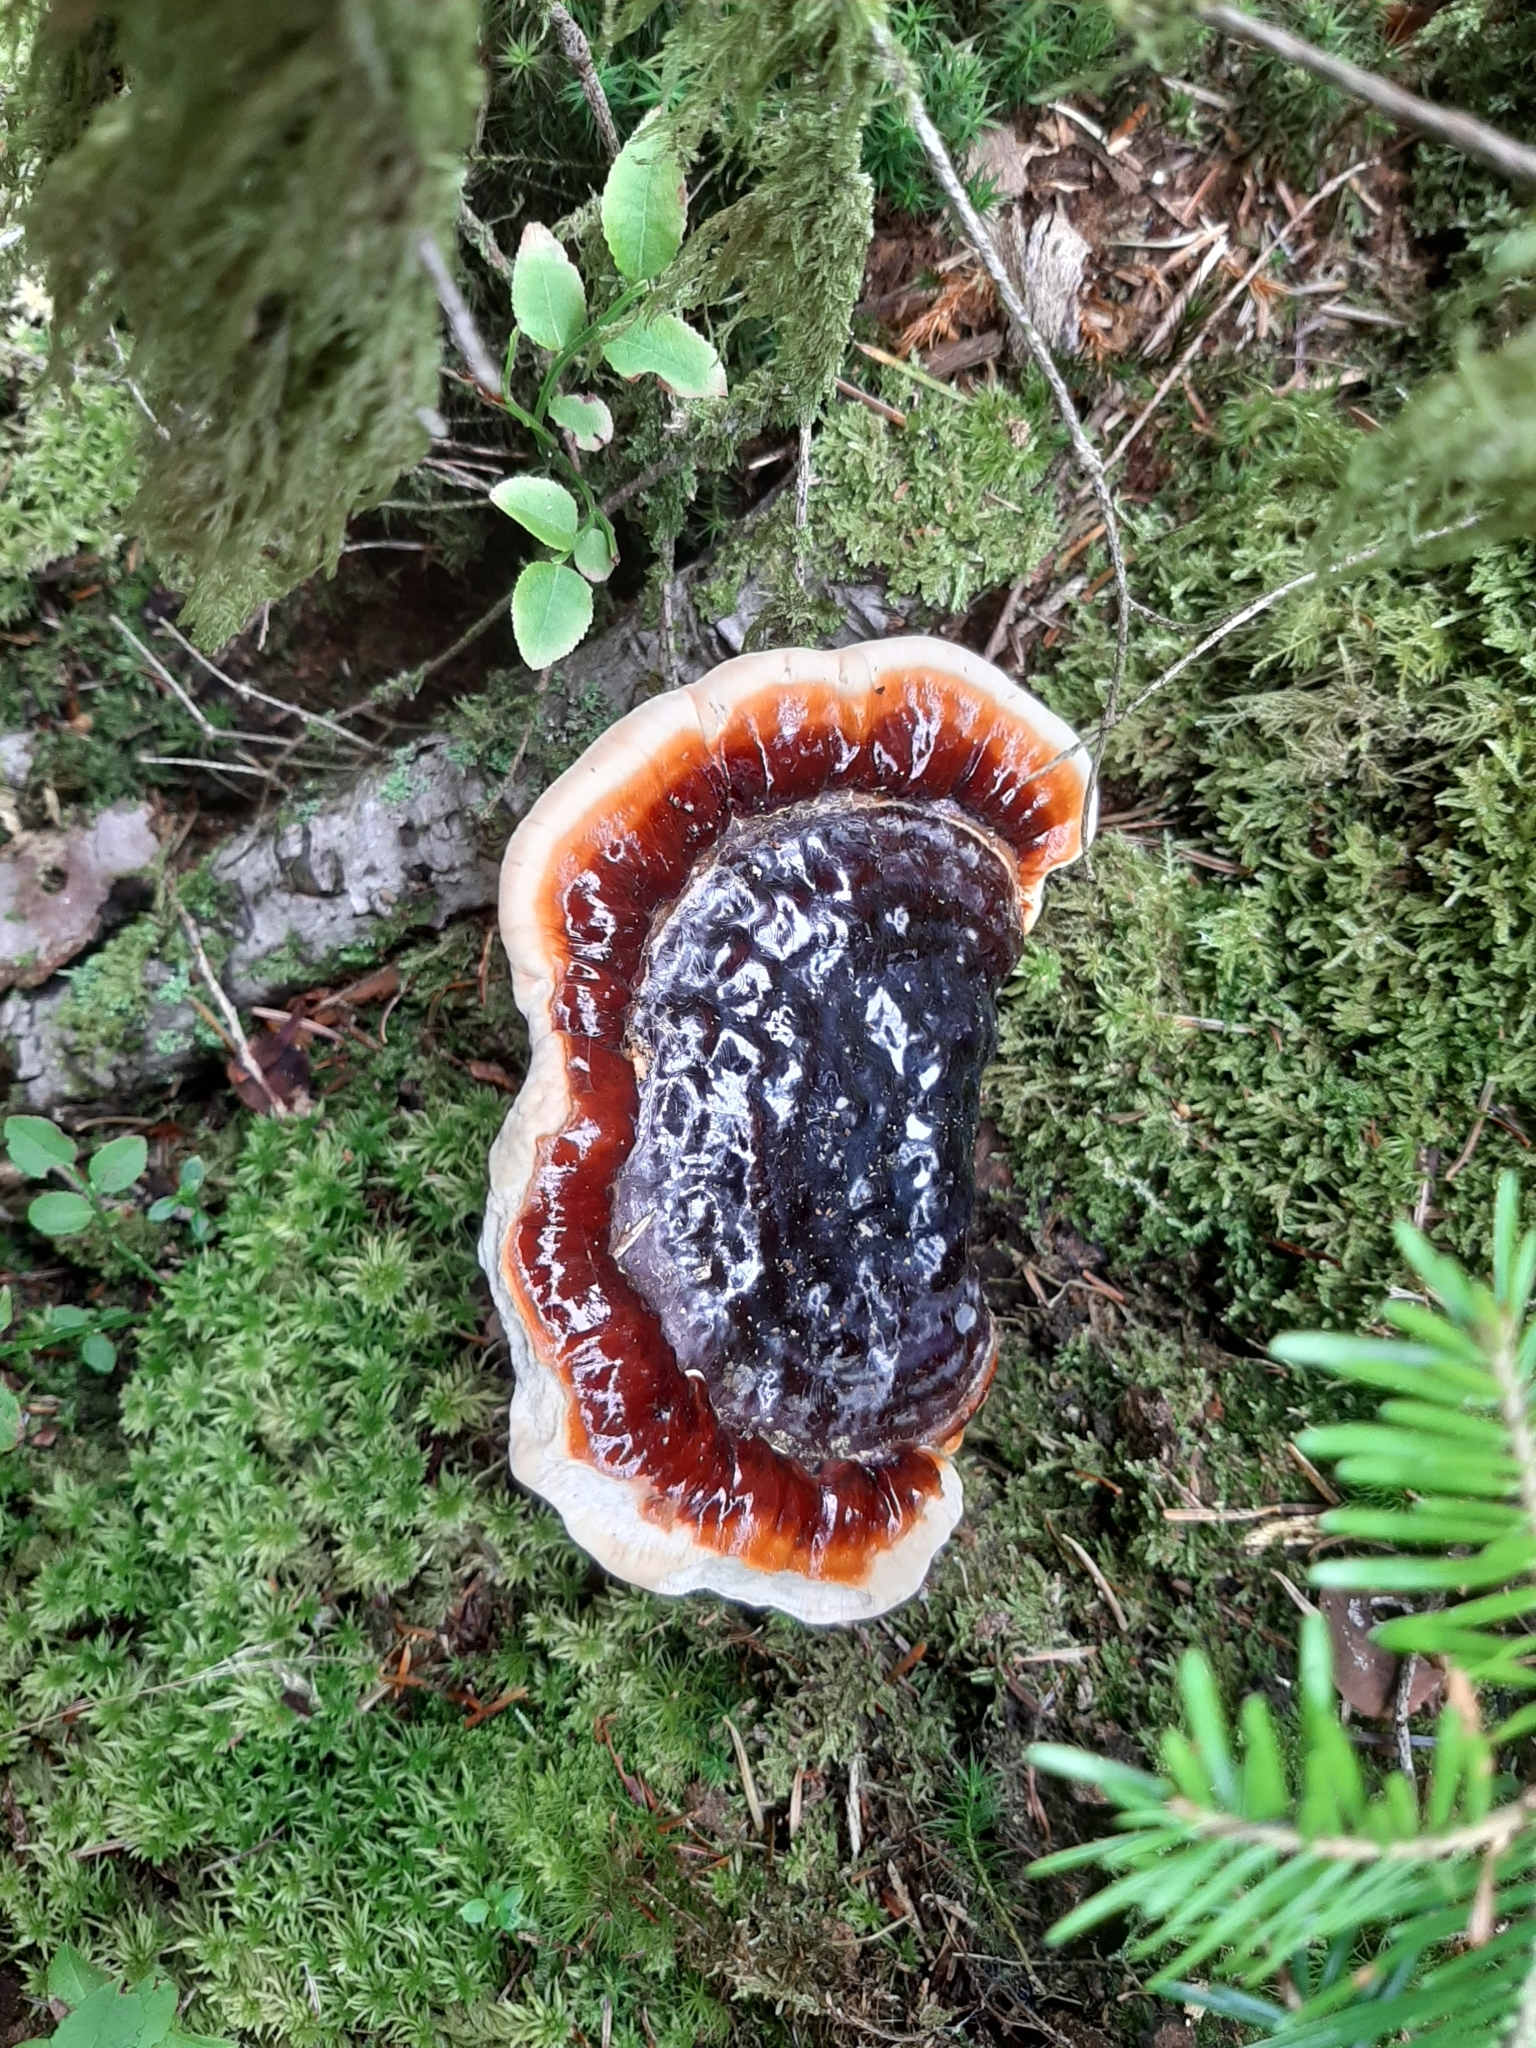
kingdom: Fungi
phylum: Basidiomycota
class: Agaricomycetes
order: Polyporales
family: Fomitopsidaceae
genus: Fomitopsis
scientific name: Fomitopsis pinicola
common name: Red-belted bracket
